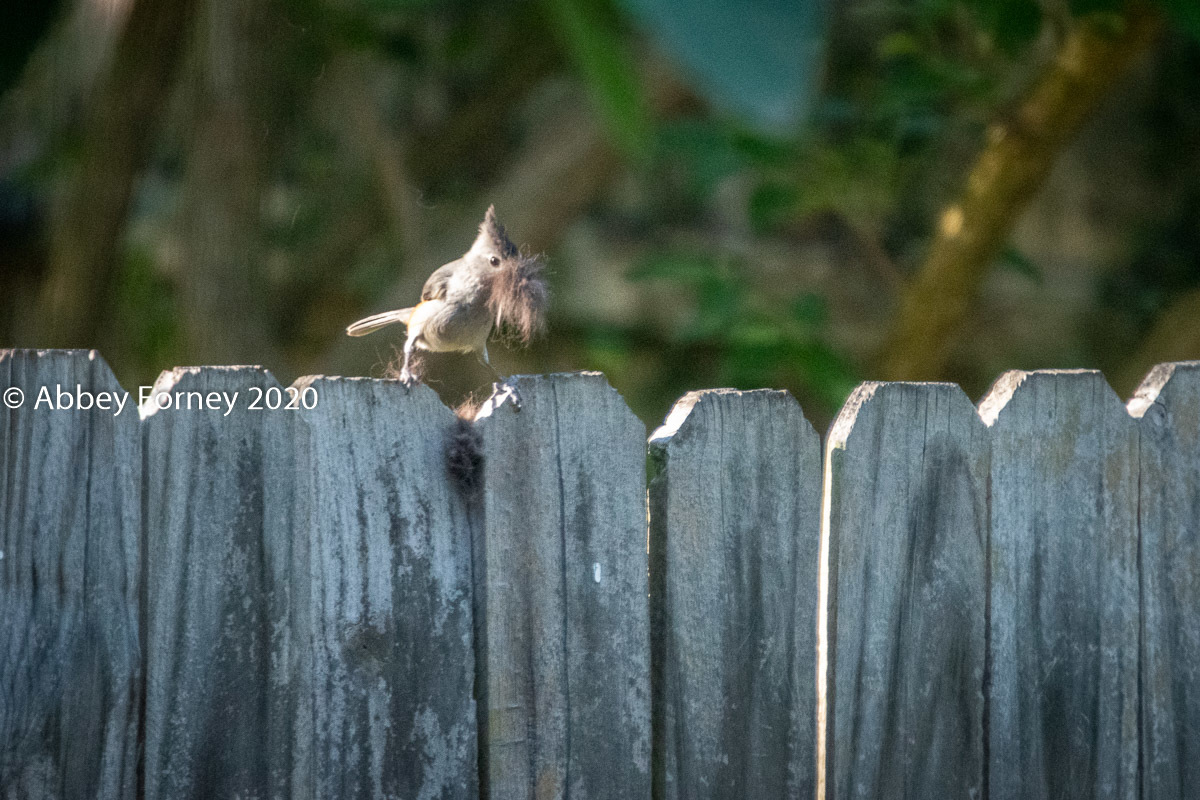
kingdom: Animalia
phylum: Chordata
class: Aves
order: Passeriformes
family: Paridae
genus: Baeolophus
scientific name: Baeolophus atricristatus
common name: Black-crested titmouse
